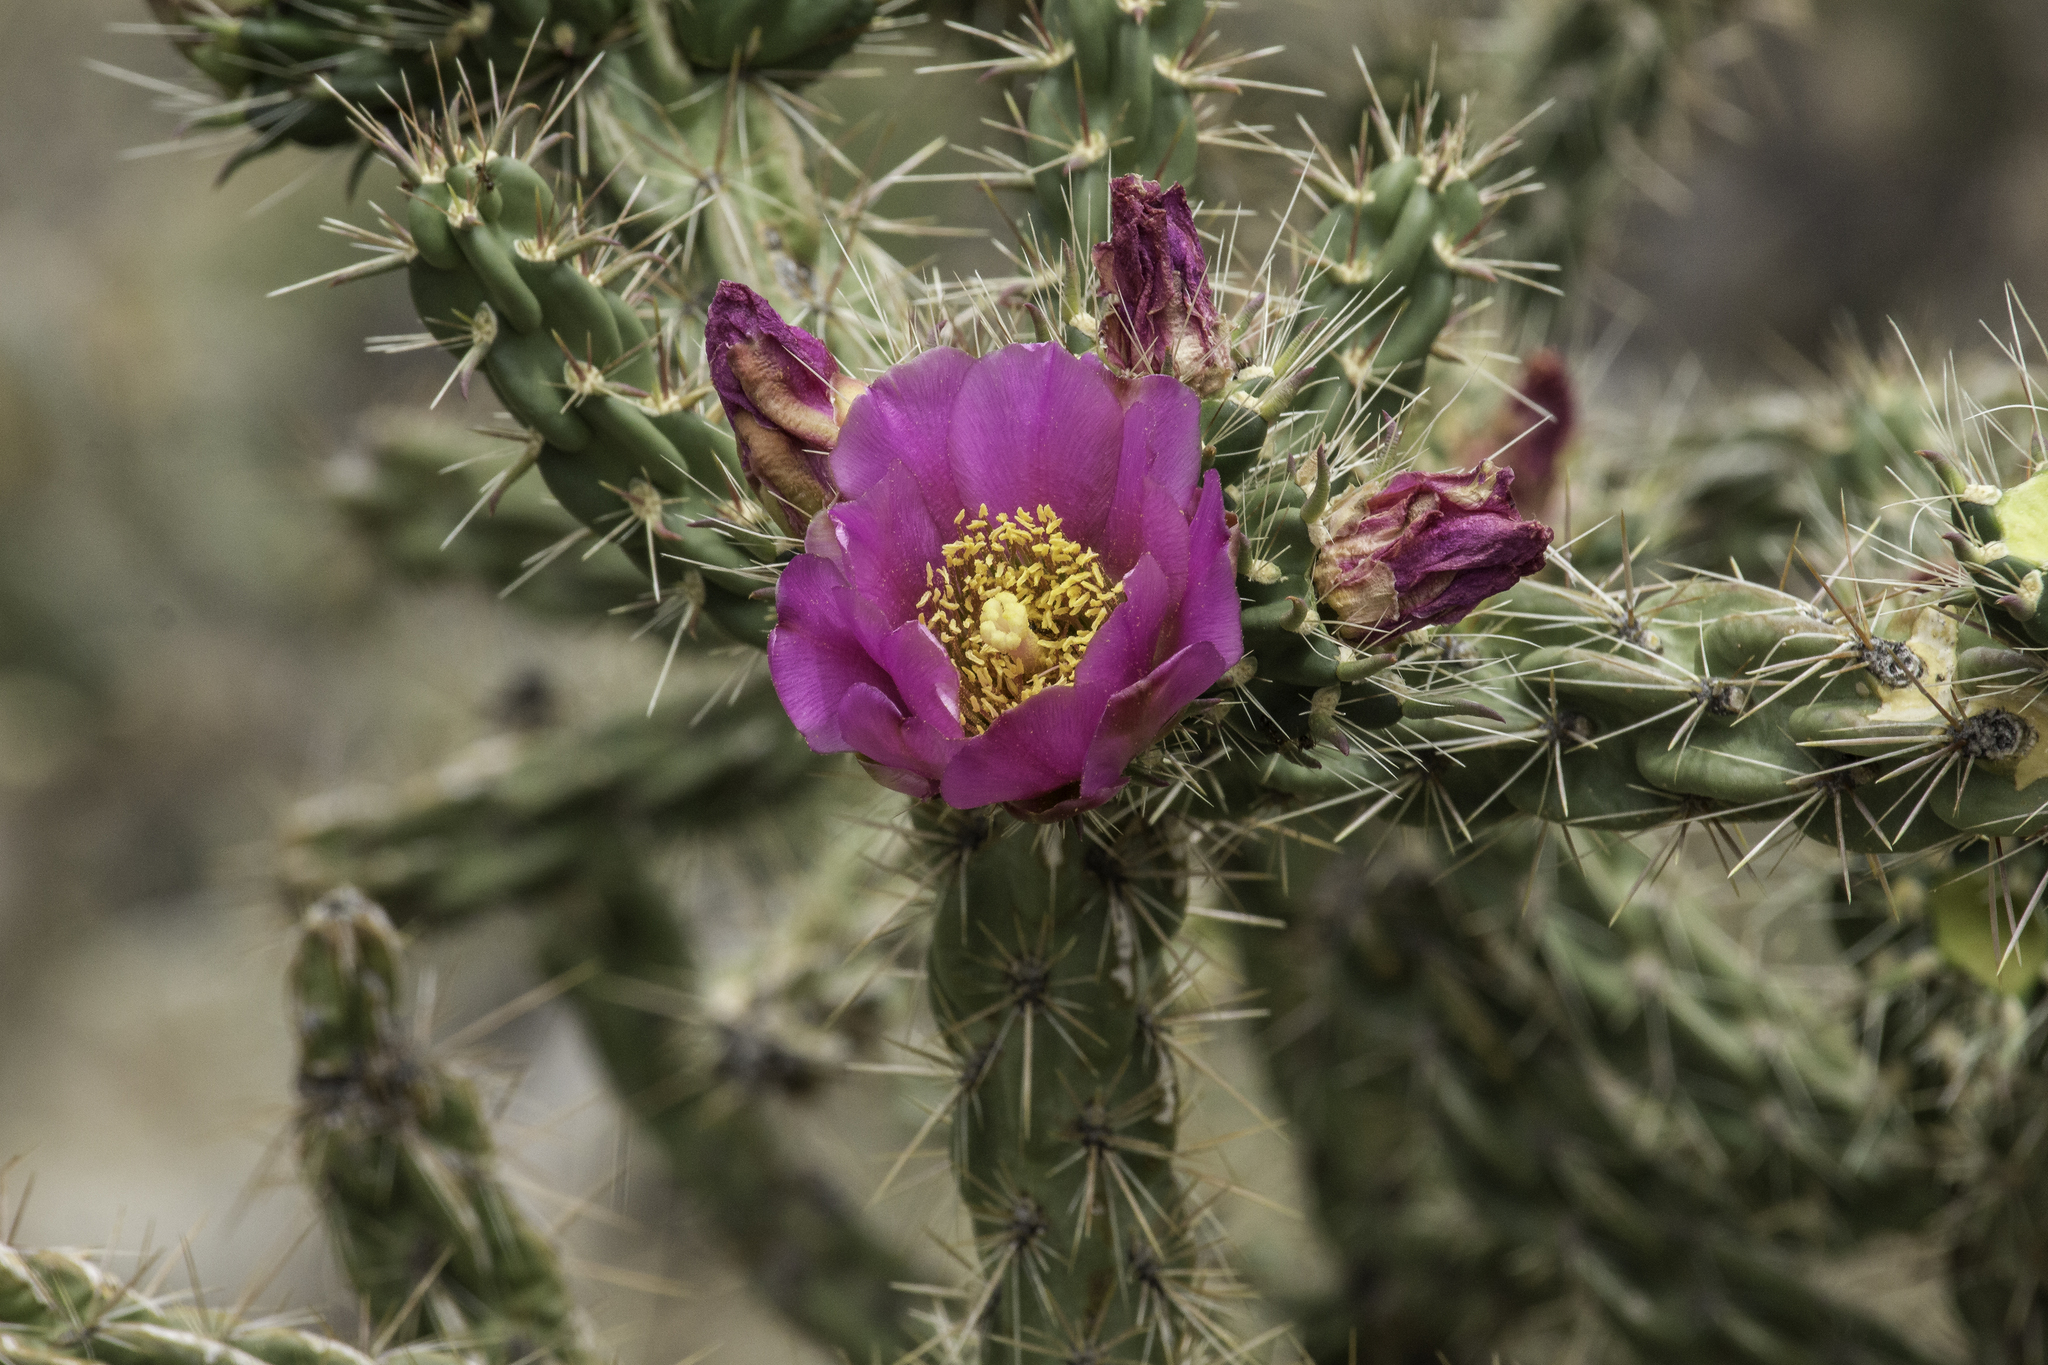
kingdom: Plantae
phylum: Tracheophyta
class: Magnoliopsida
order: Caryophyllales
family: Cactaceae
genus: Cylindropuntia
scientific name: Cylindropuntia imbricata
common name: Candelabrum cactus
